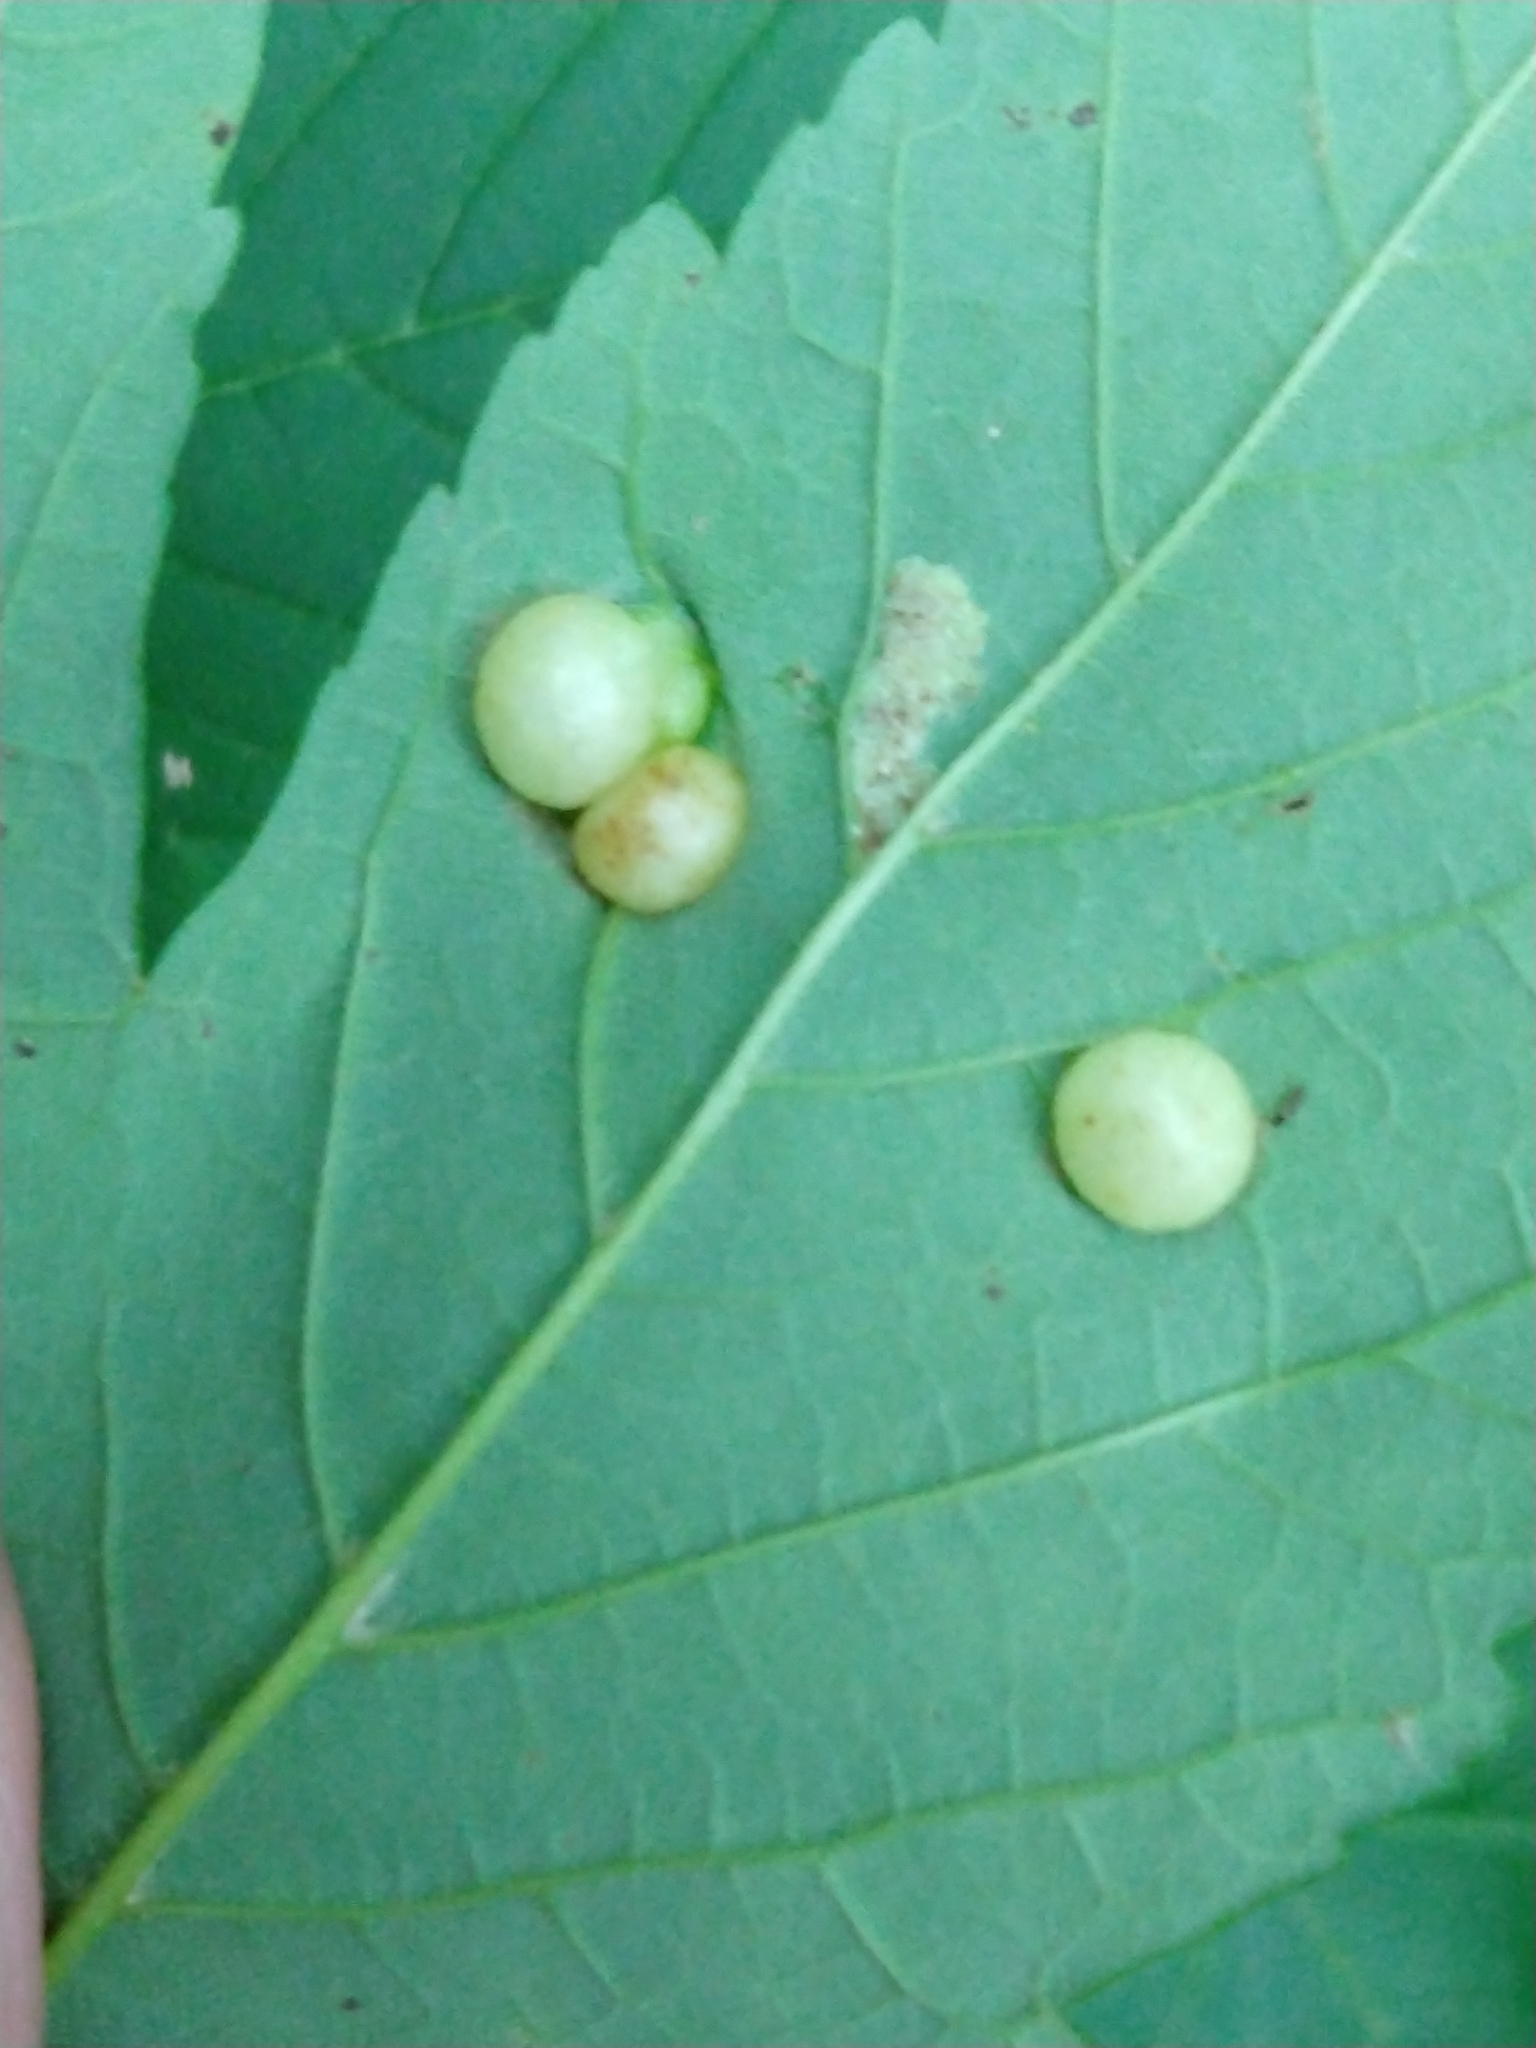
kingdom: Animalia
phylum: Arthropoda
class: Insecta
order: Hymenoptera
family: Cynipidae
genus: Pediaspis
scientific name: Pediaspis aceris
